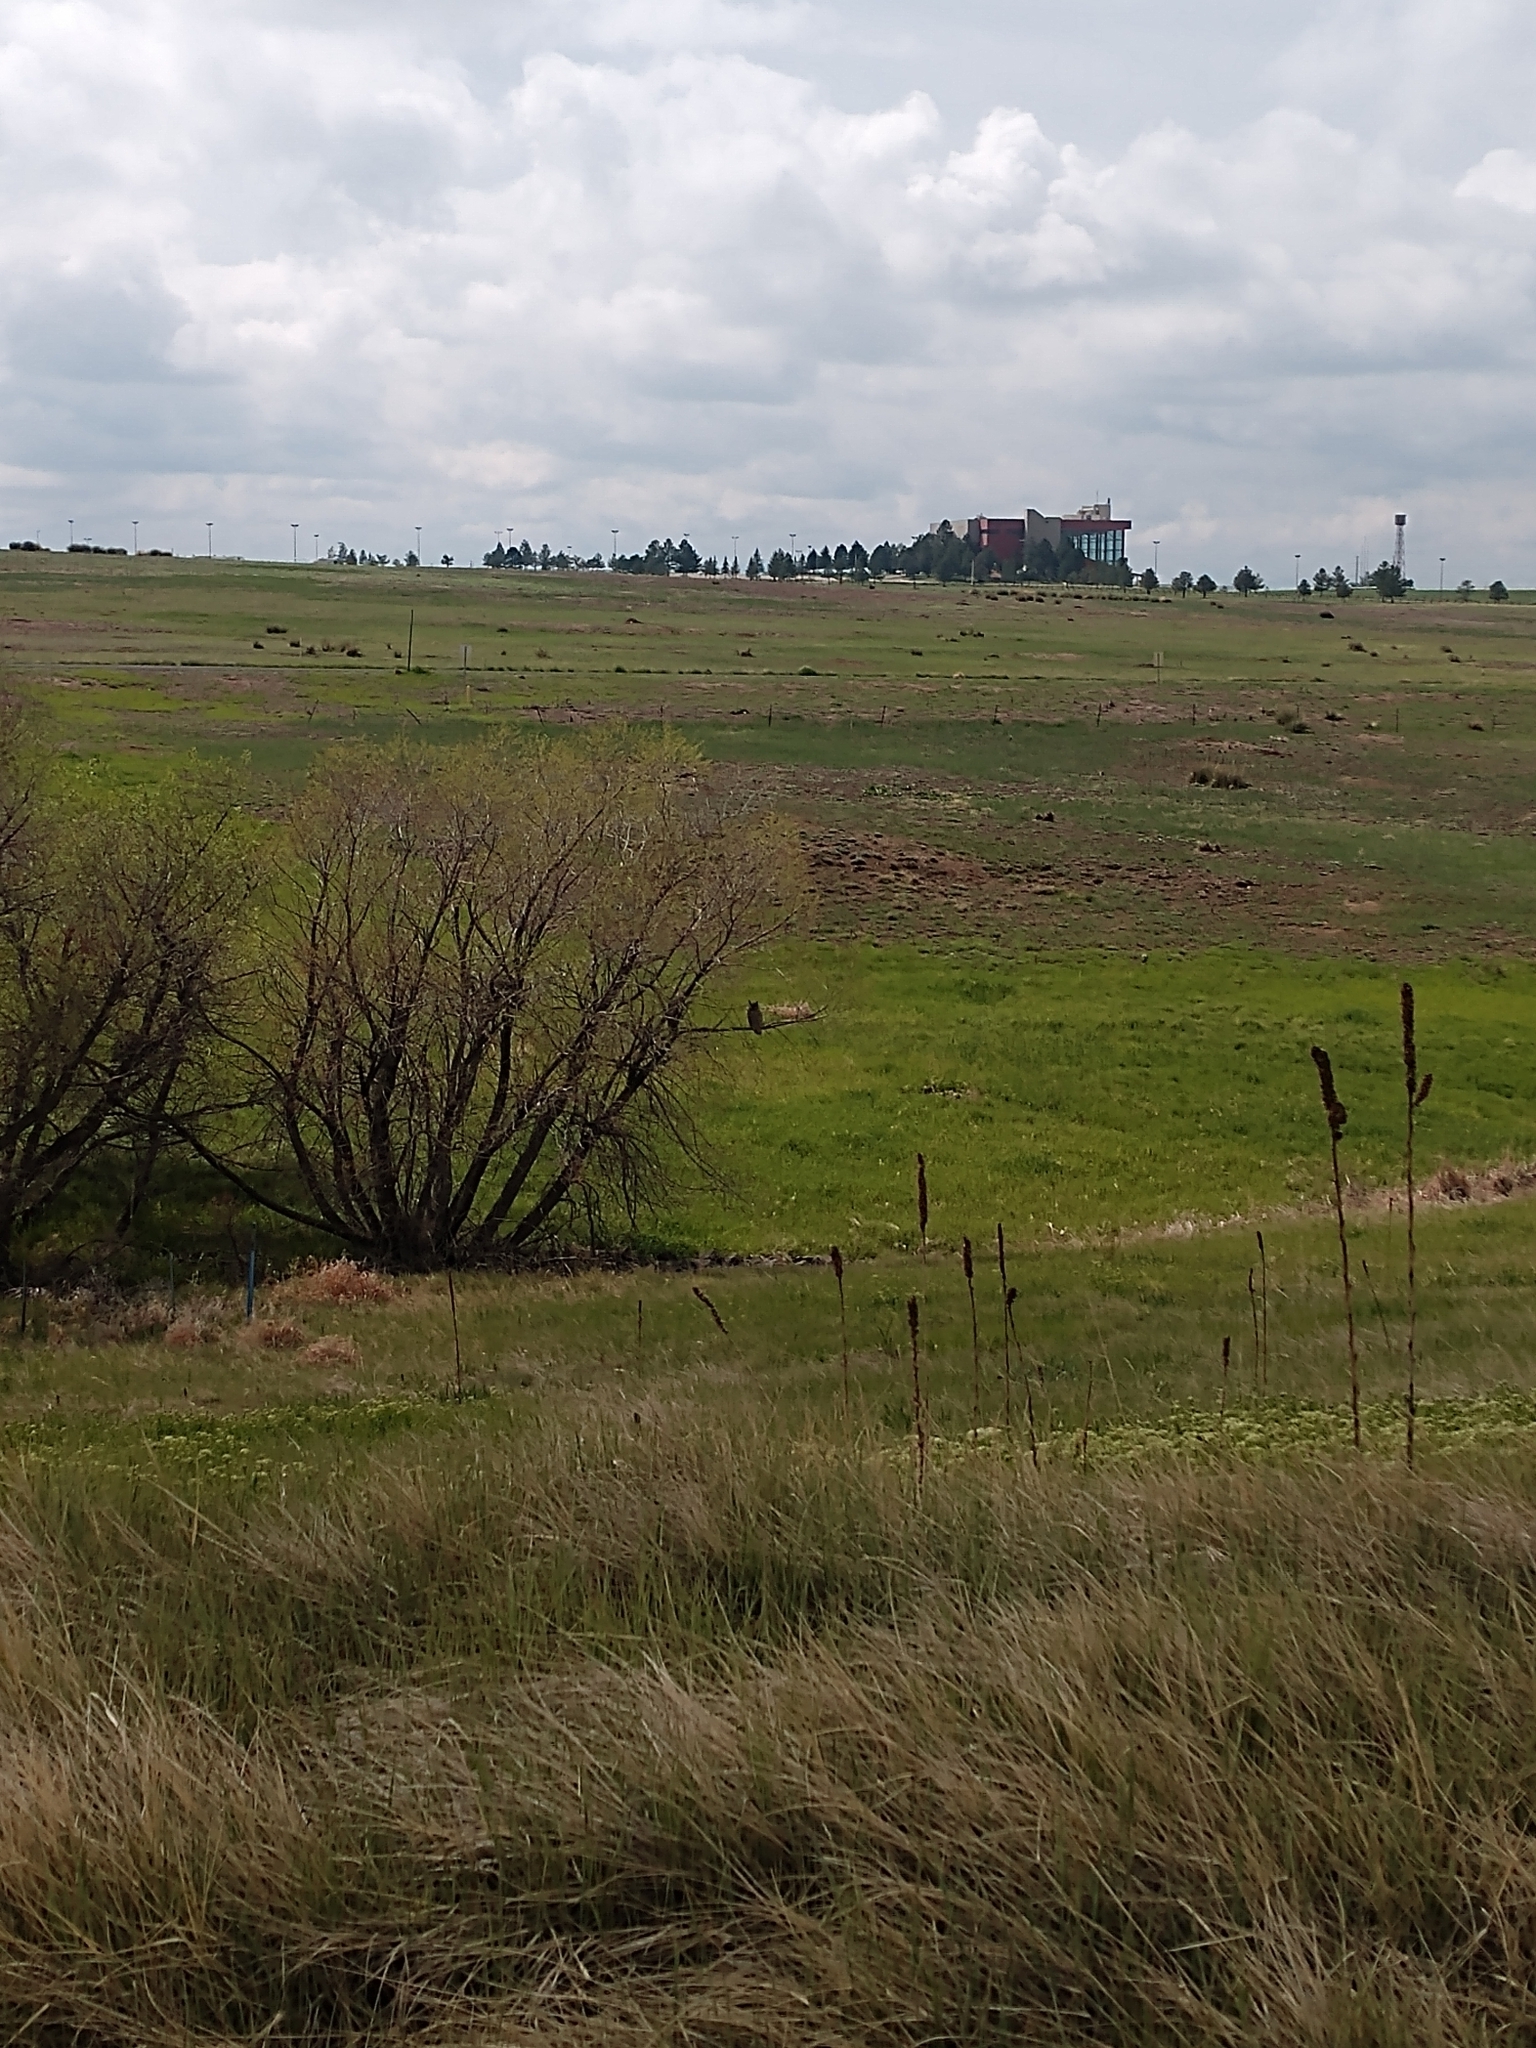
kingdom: Animalia
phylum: Chordata
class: Aves
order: Strigiformes
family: Strigidae
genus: Bubo
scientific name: Bubo virginianus
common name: Great horned owl
